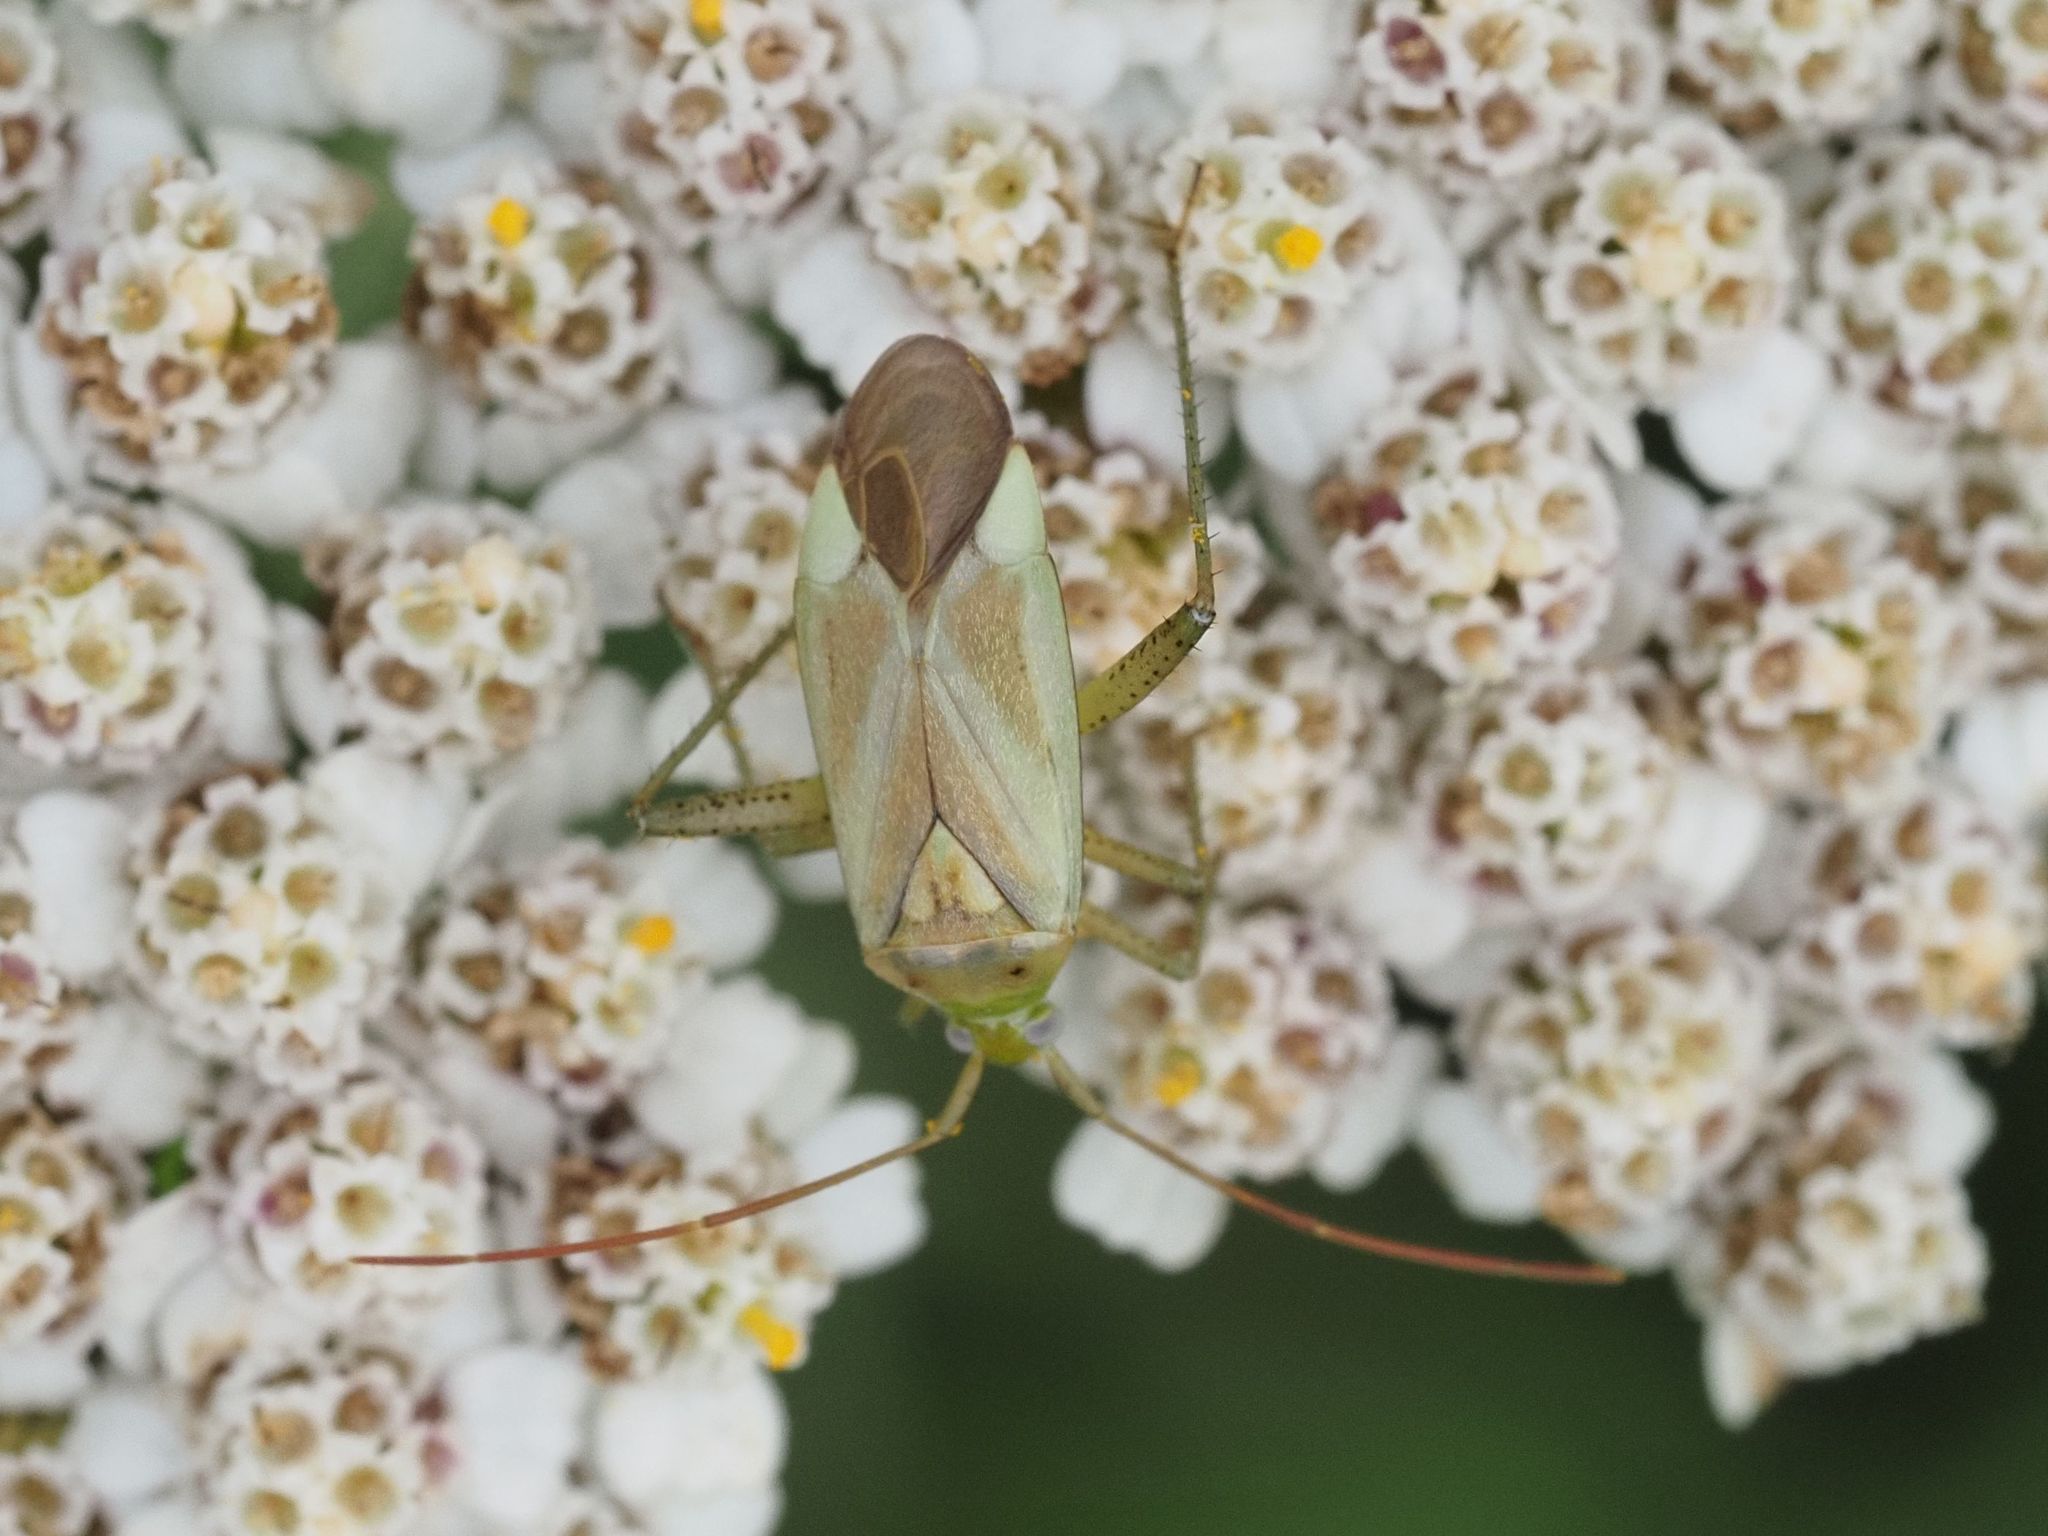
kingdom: Animalia
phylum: Arthropoda
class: Insecta
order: Hemiptera
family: Miridae
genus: Adelphocoris
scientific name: Adelphocoris lineolatus
